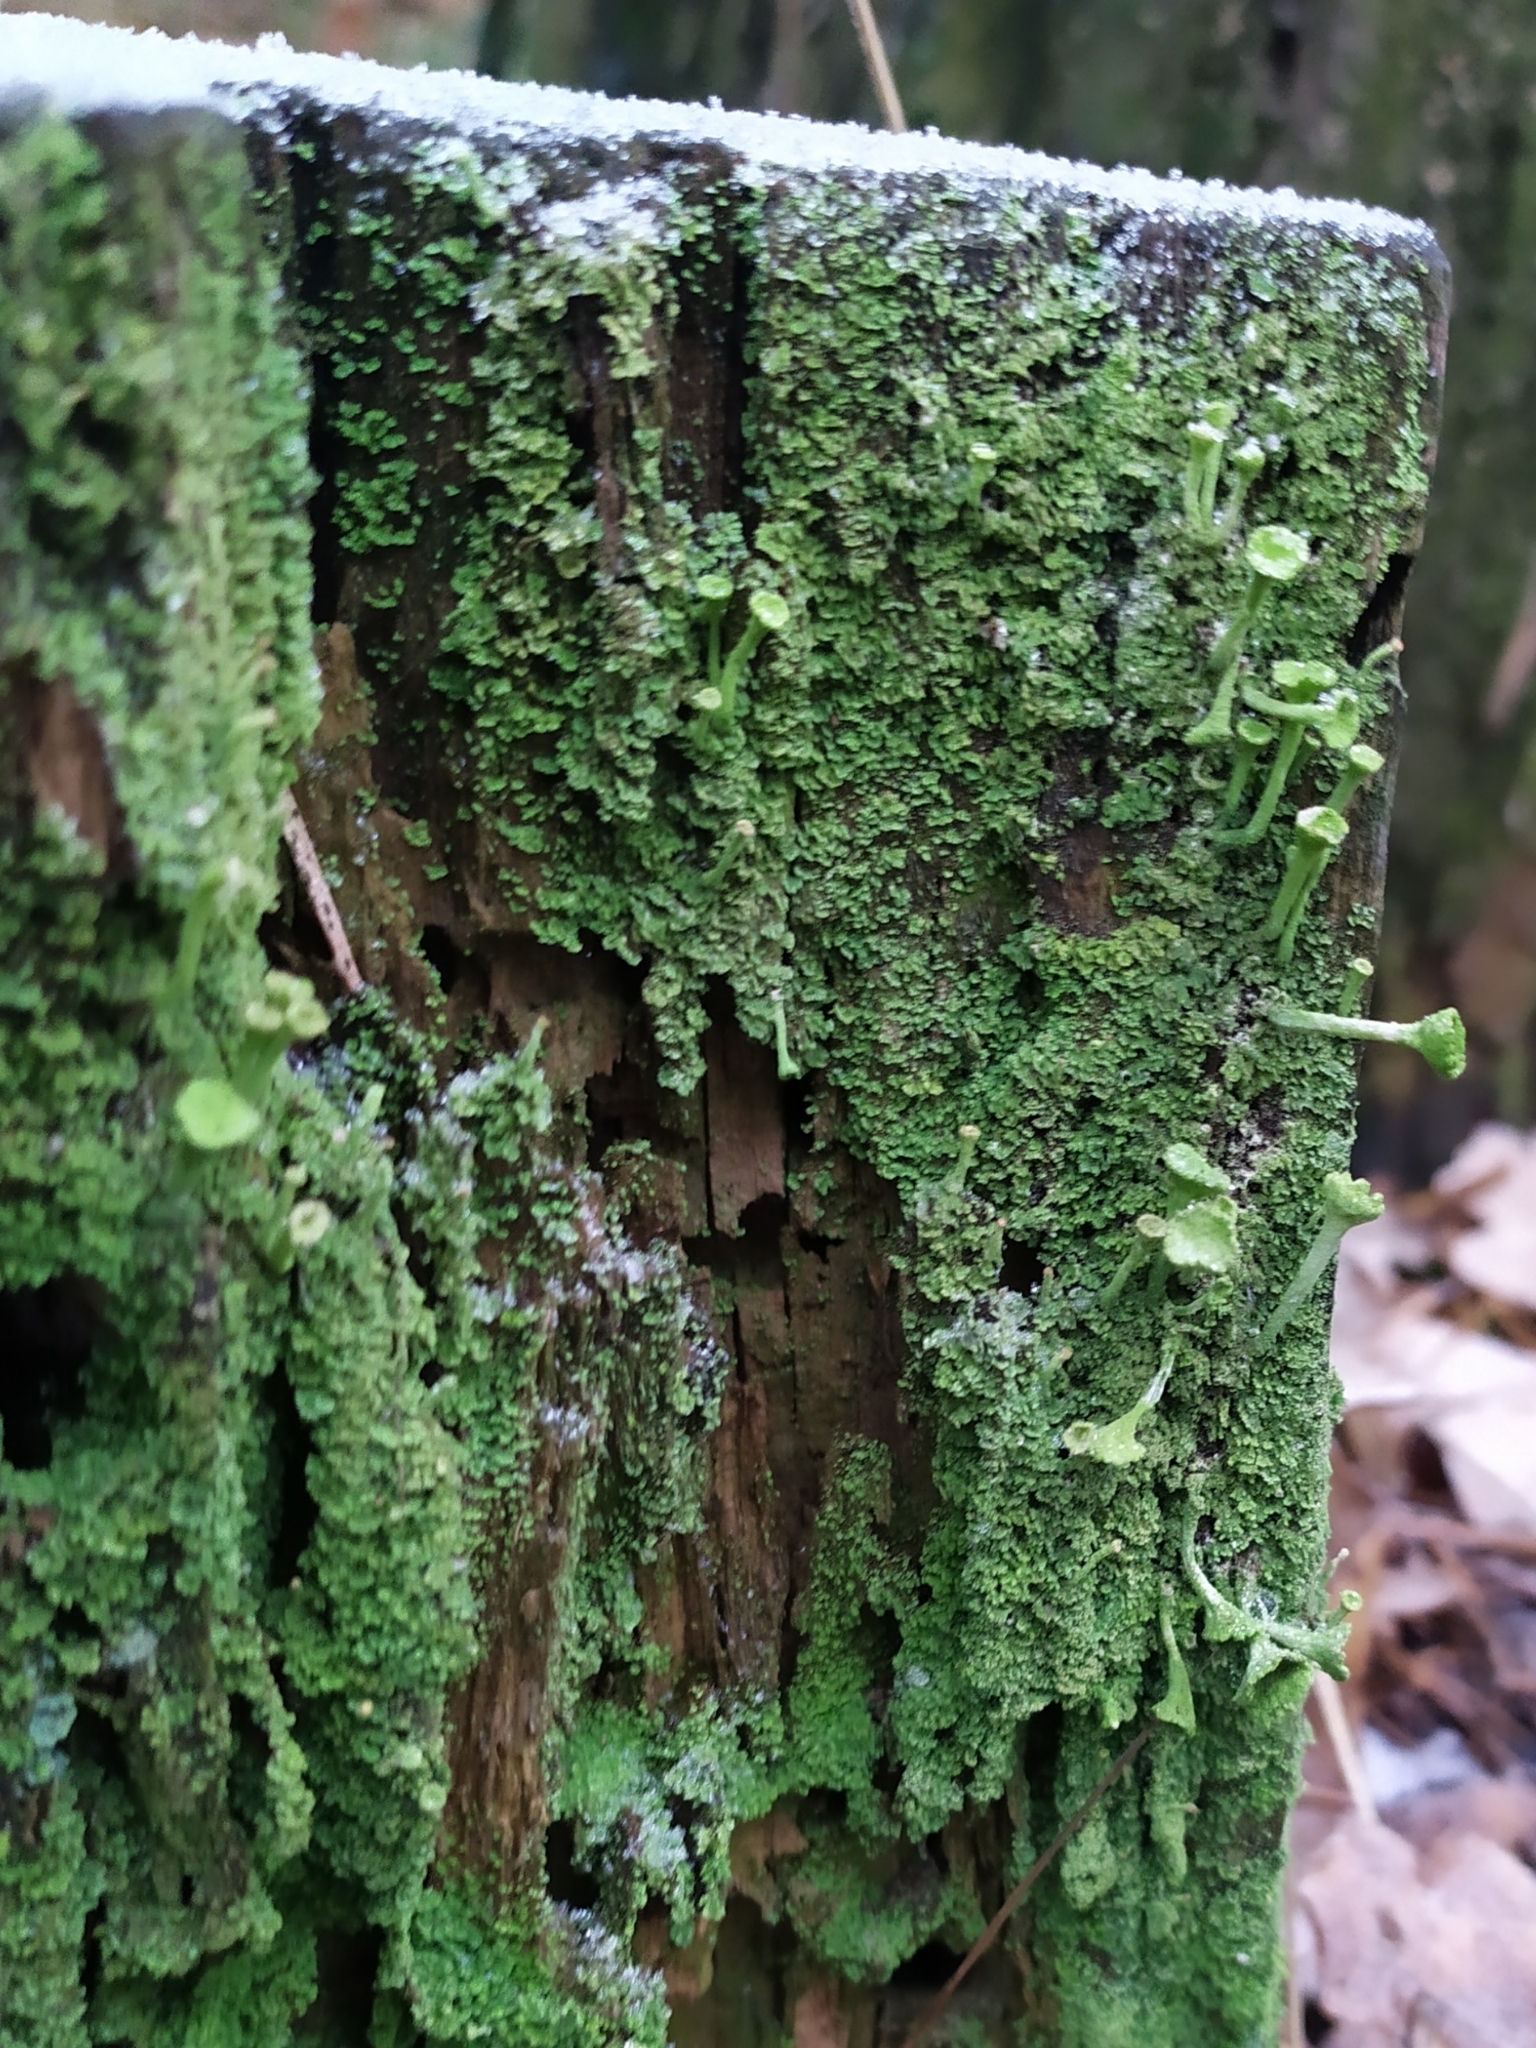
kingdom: Fungi
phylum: Ascomycota
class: Lecanoromycetes
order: Lecanorales
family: Cladoniaceae
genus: Cladonia
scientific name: Cladonia fimbriata
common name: Powdered trumpet lichen
